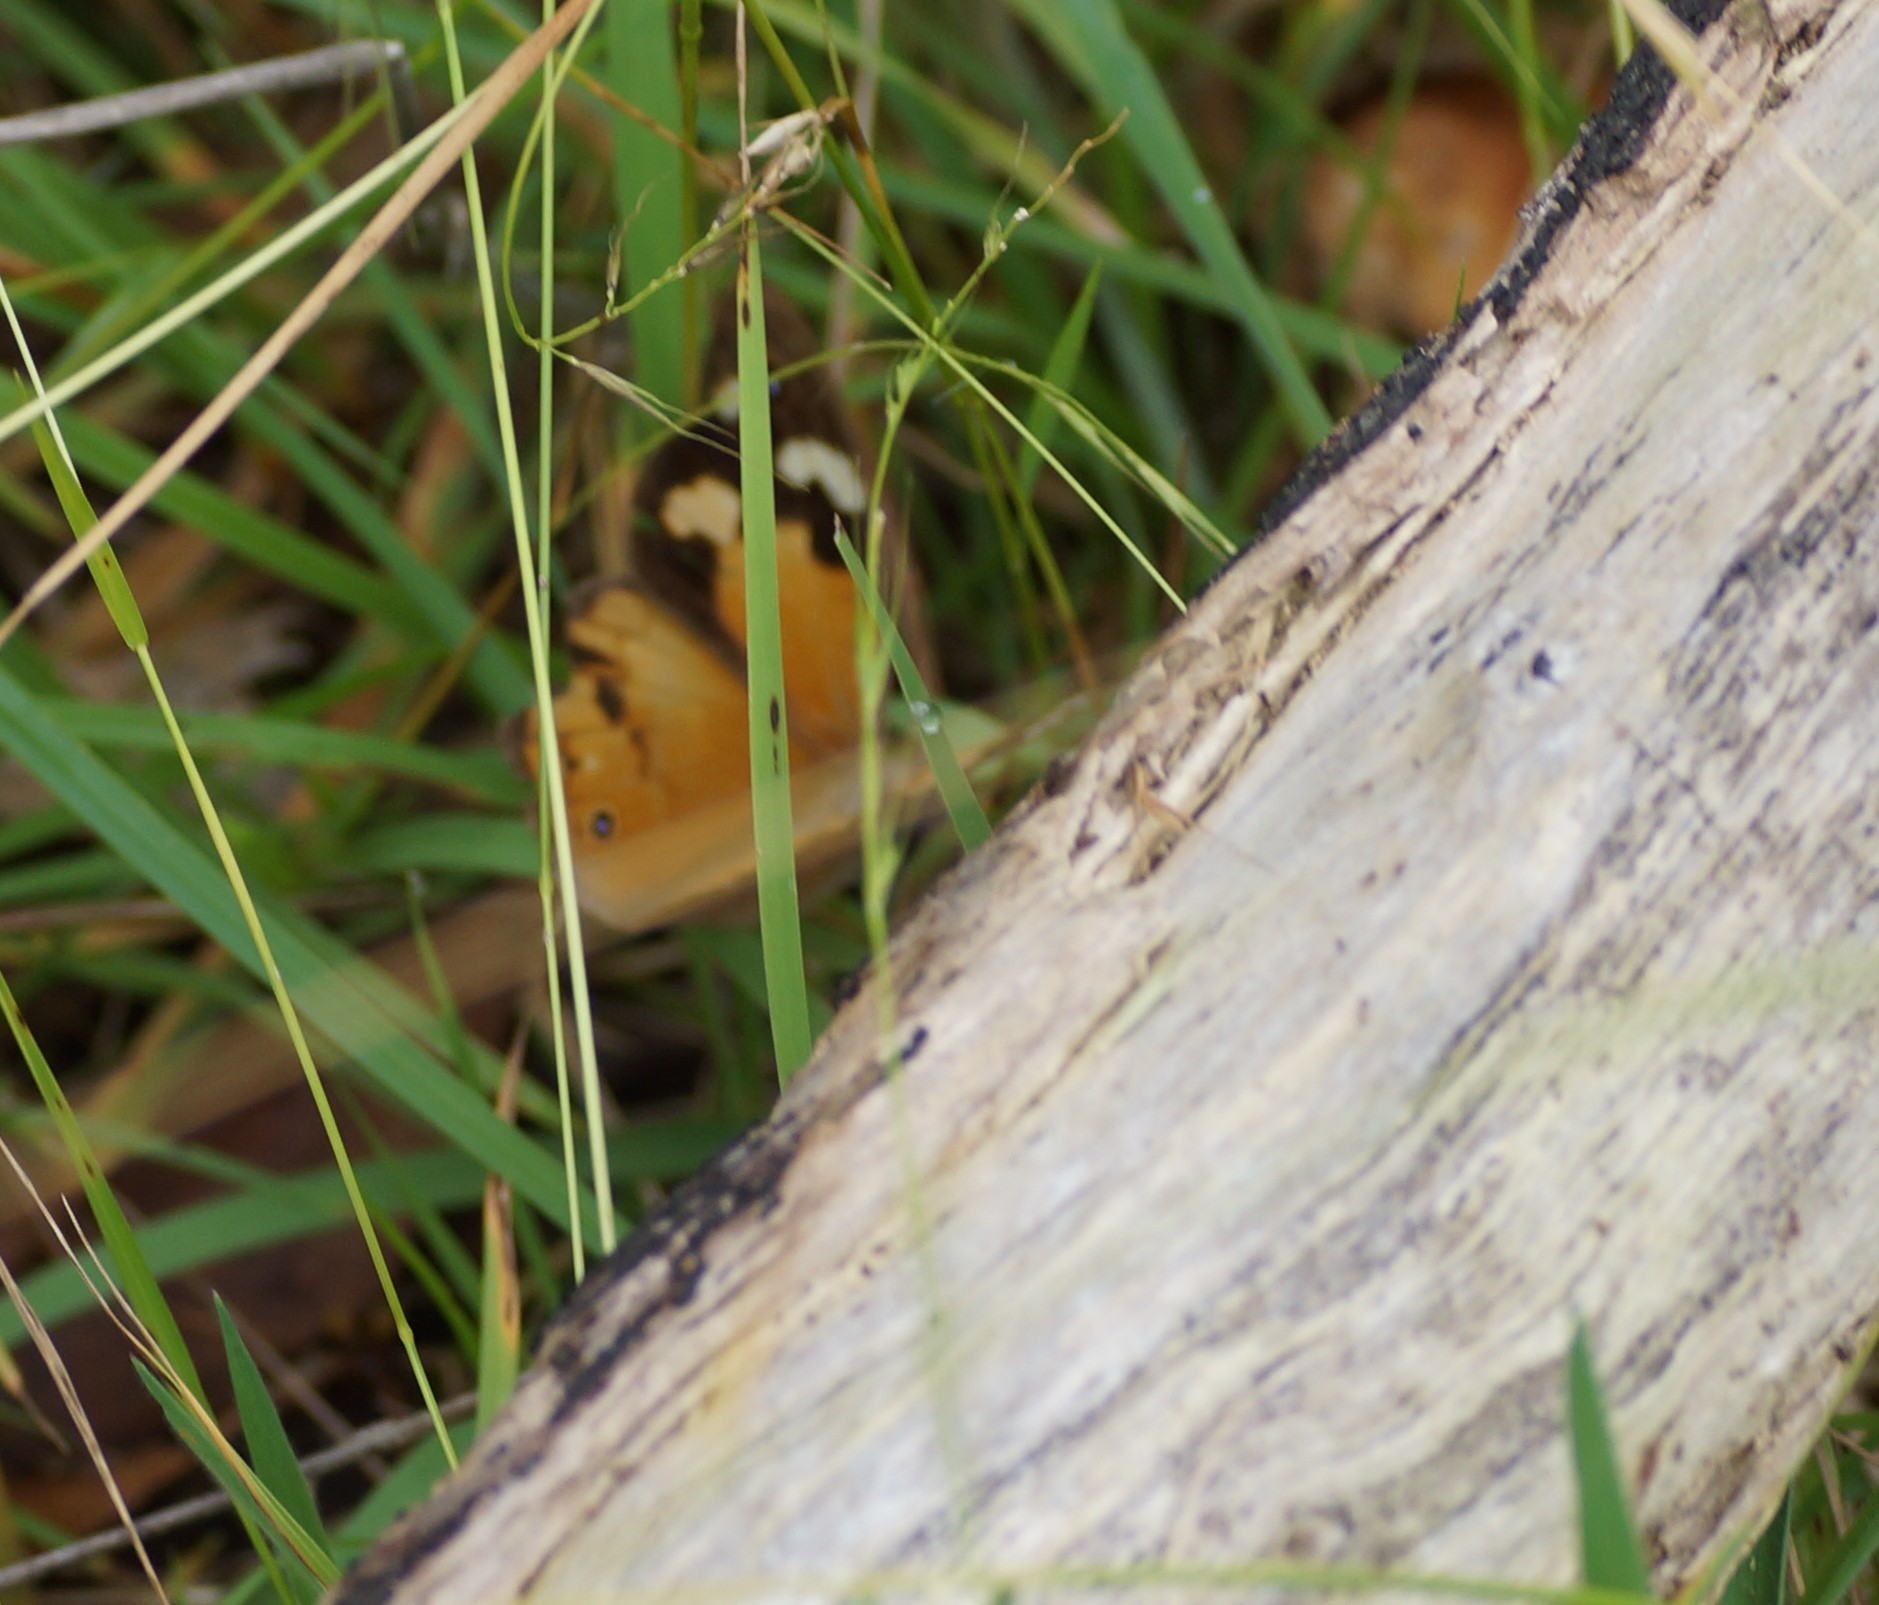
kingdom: Animalia
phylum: Arthropoda
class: Insecta
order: Lepidoptera
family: Nymphalidae
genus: Heteronympha
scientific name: Heteronympha merope
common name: Common brown
